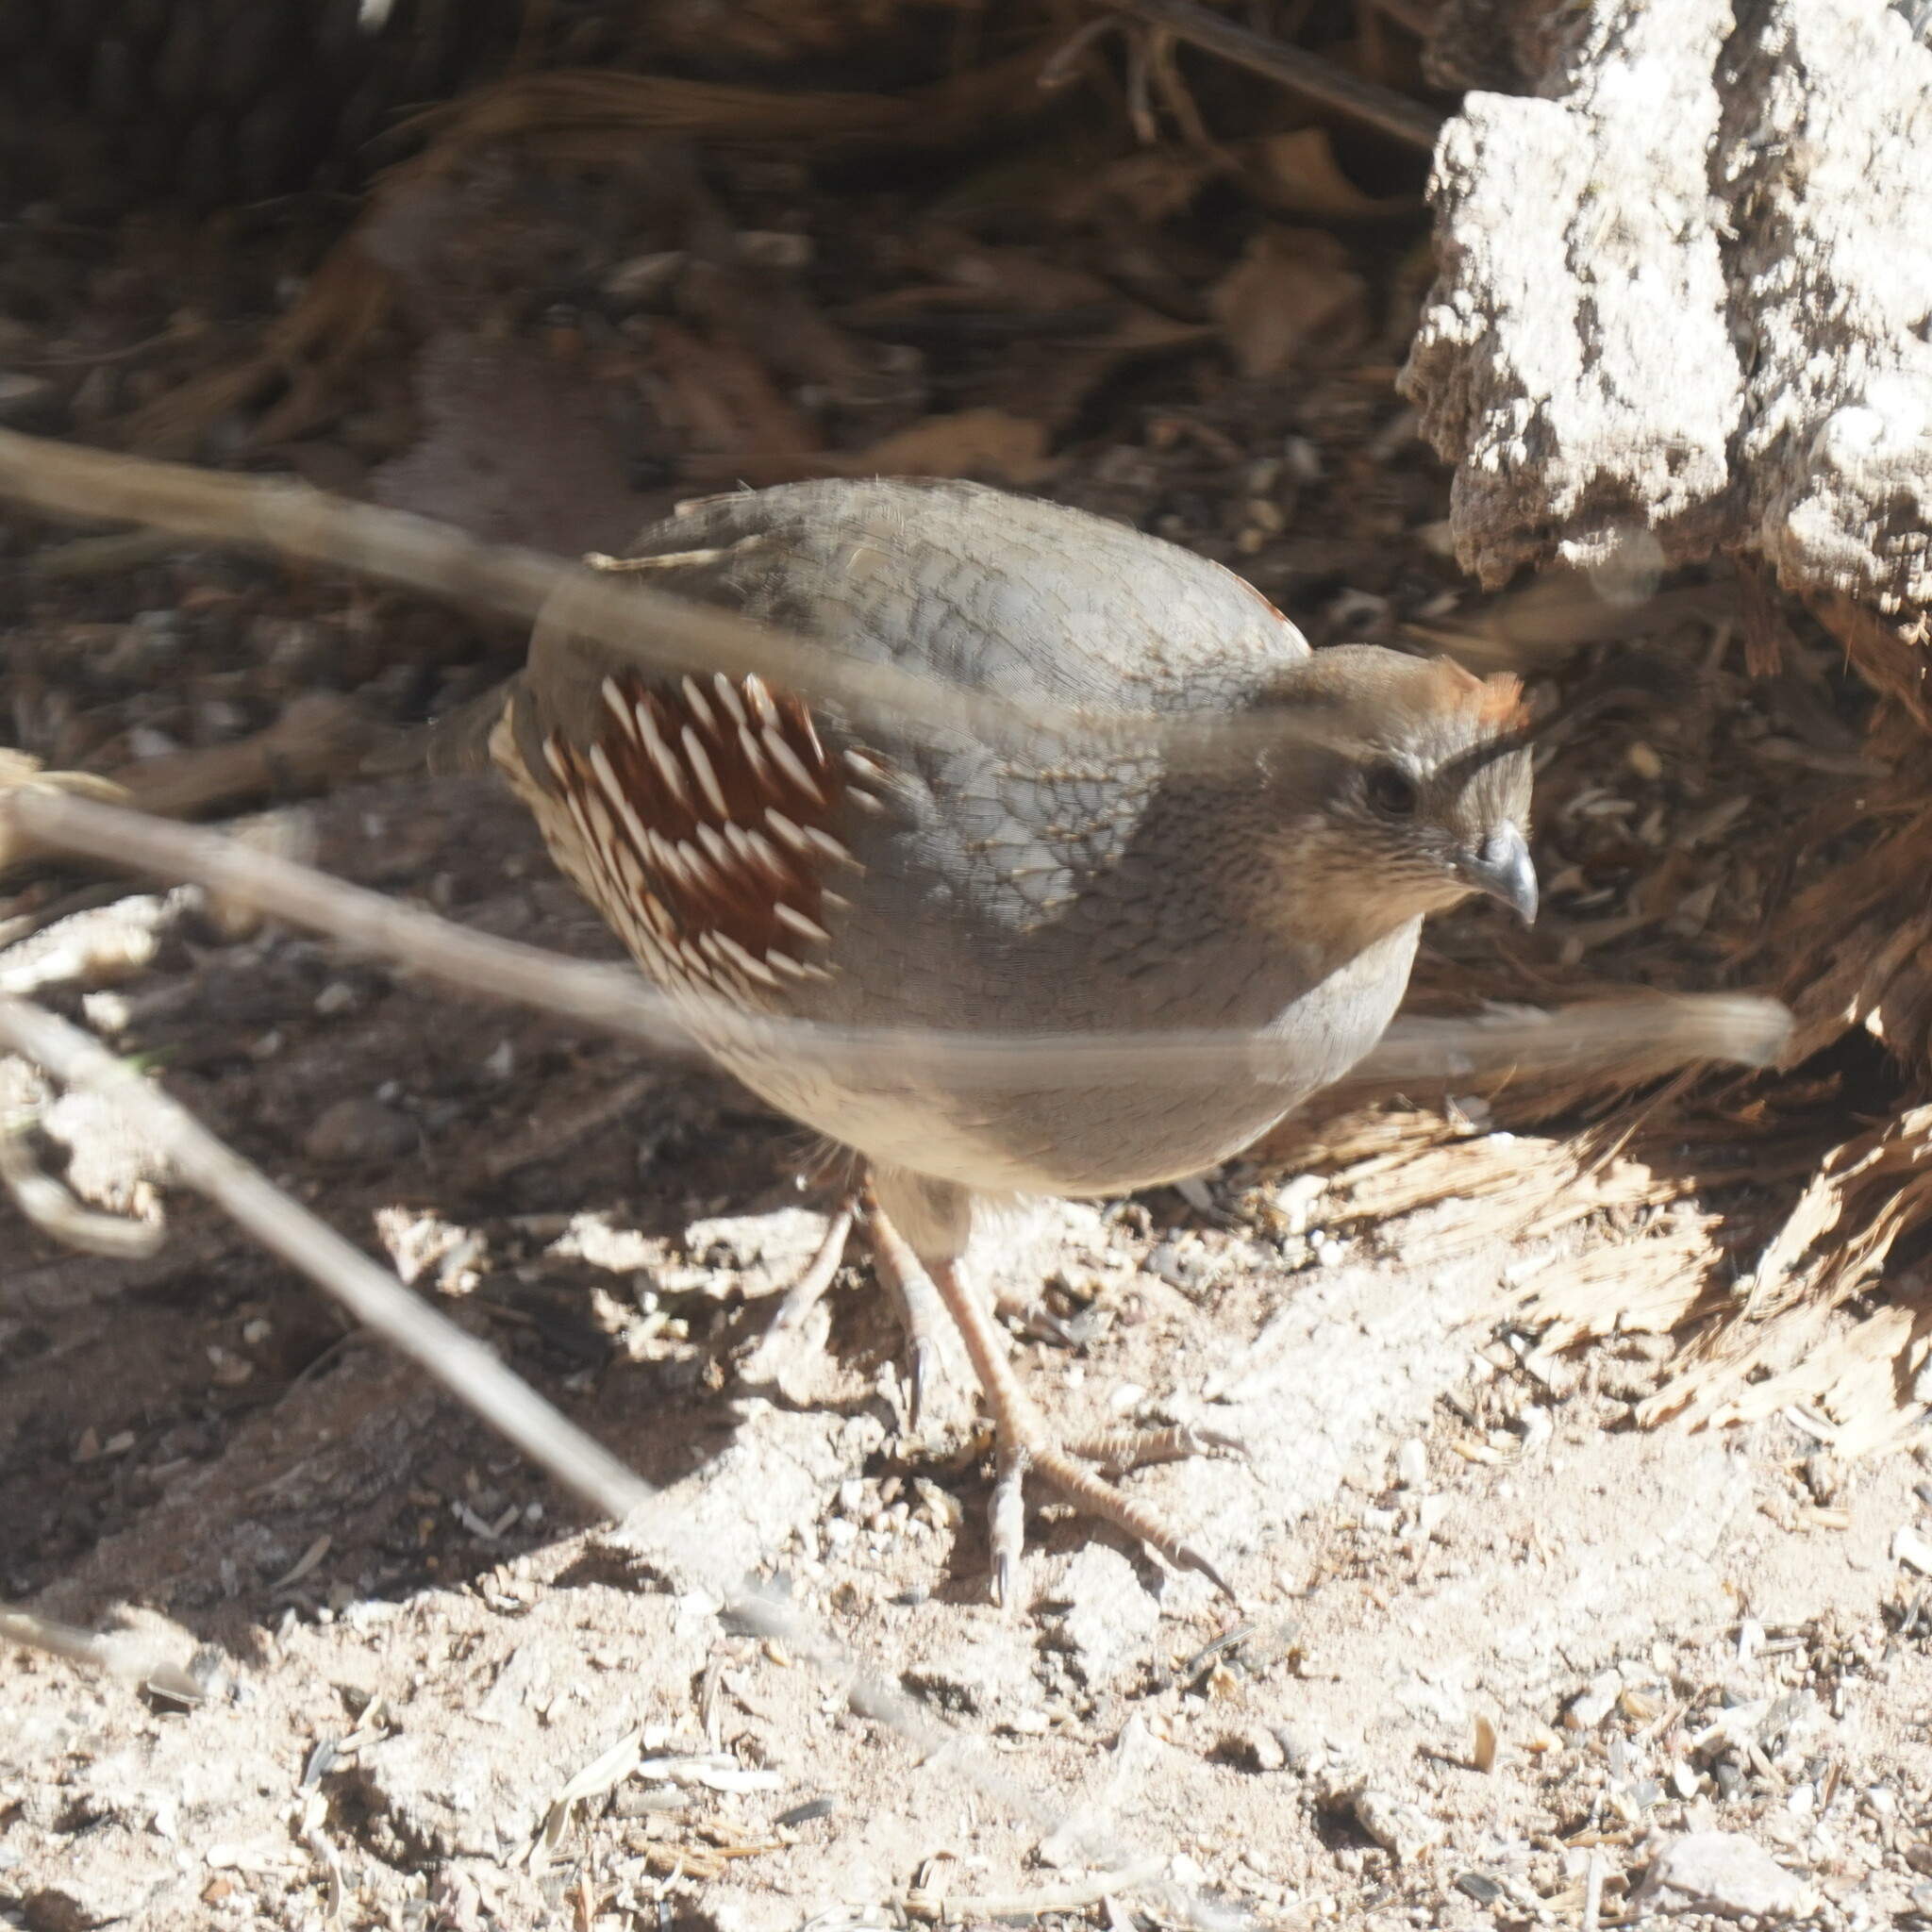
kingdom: Animalia
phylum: Chordata
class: Aves
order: Galliformes
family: Odontophoridae
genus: Callipepla
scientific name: Callipepla gambelii
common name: Gambel's quail
